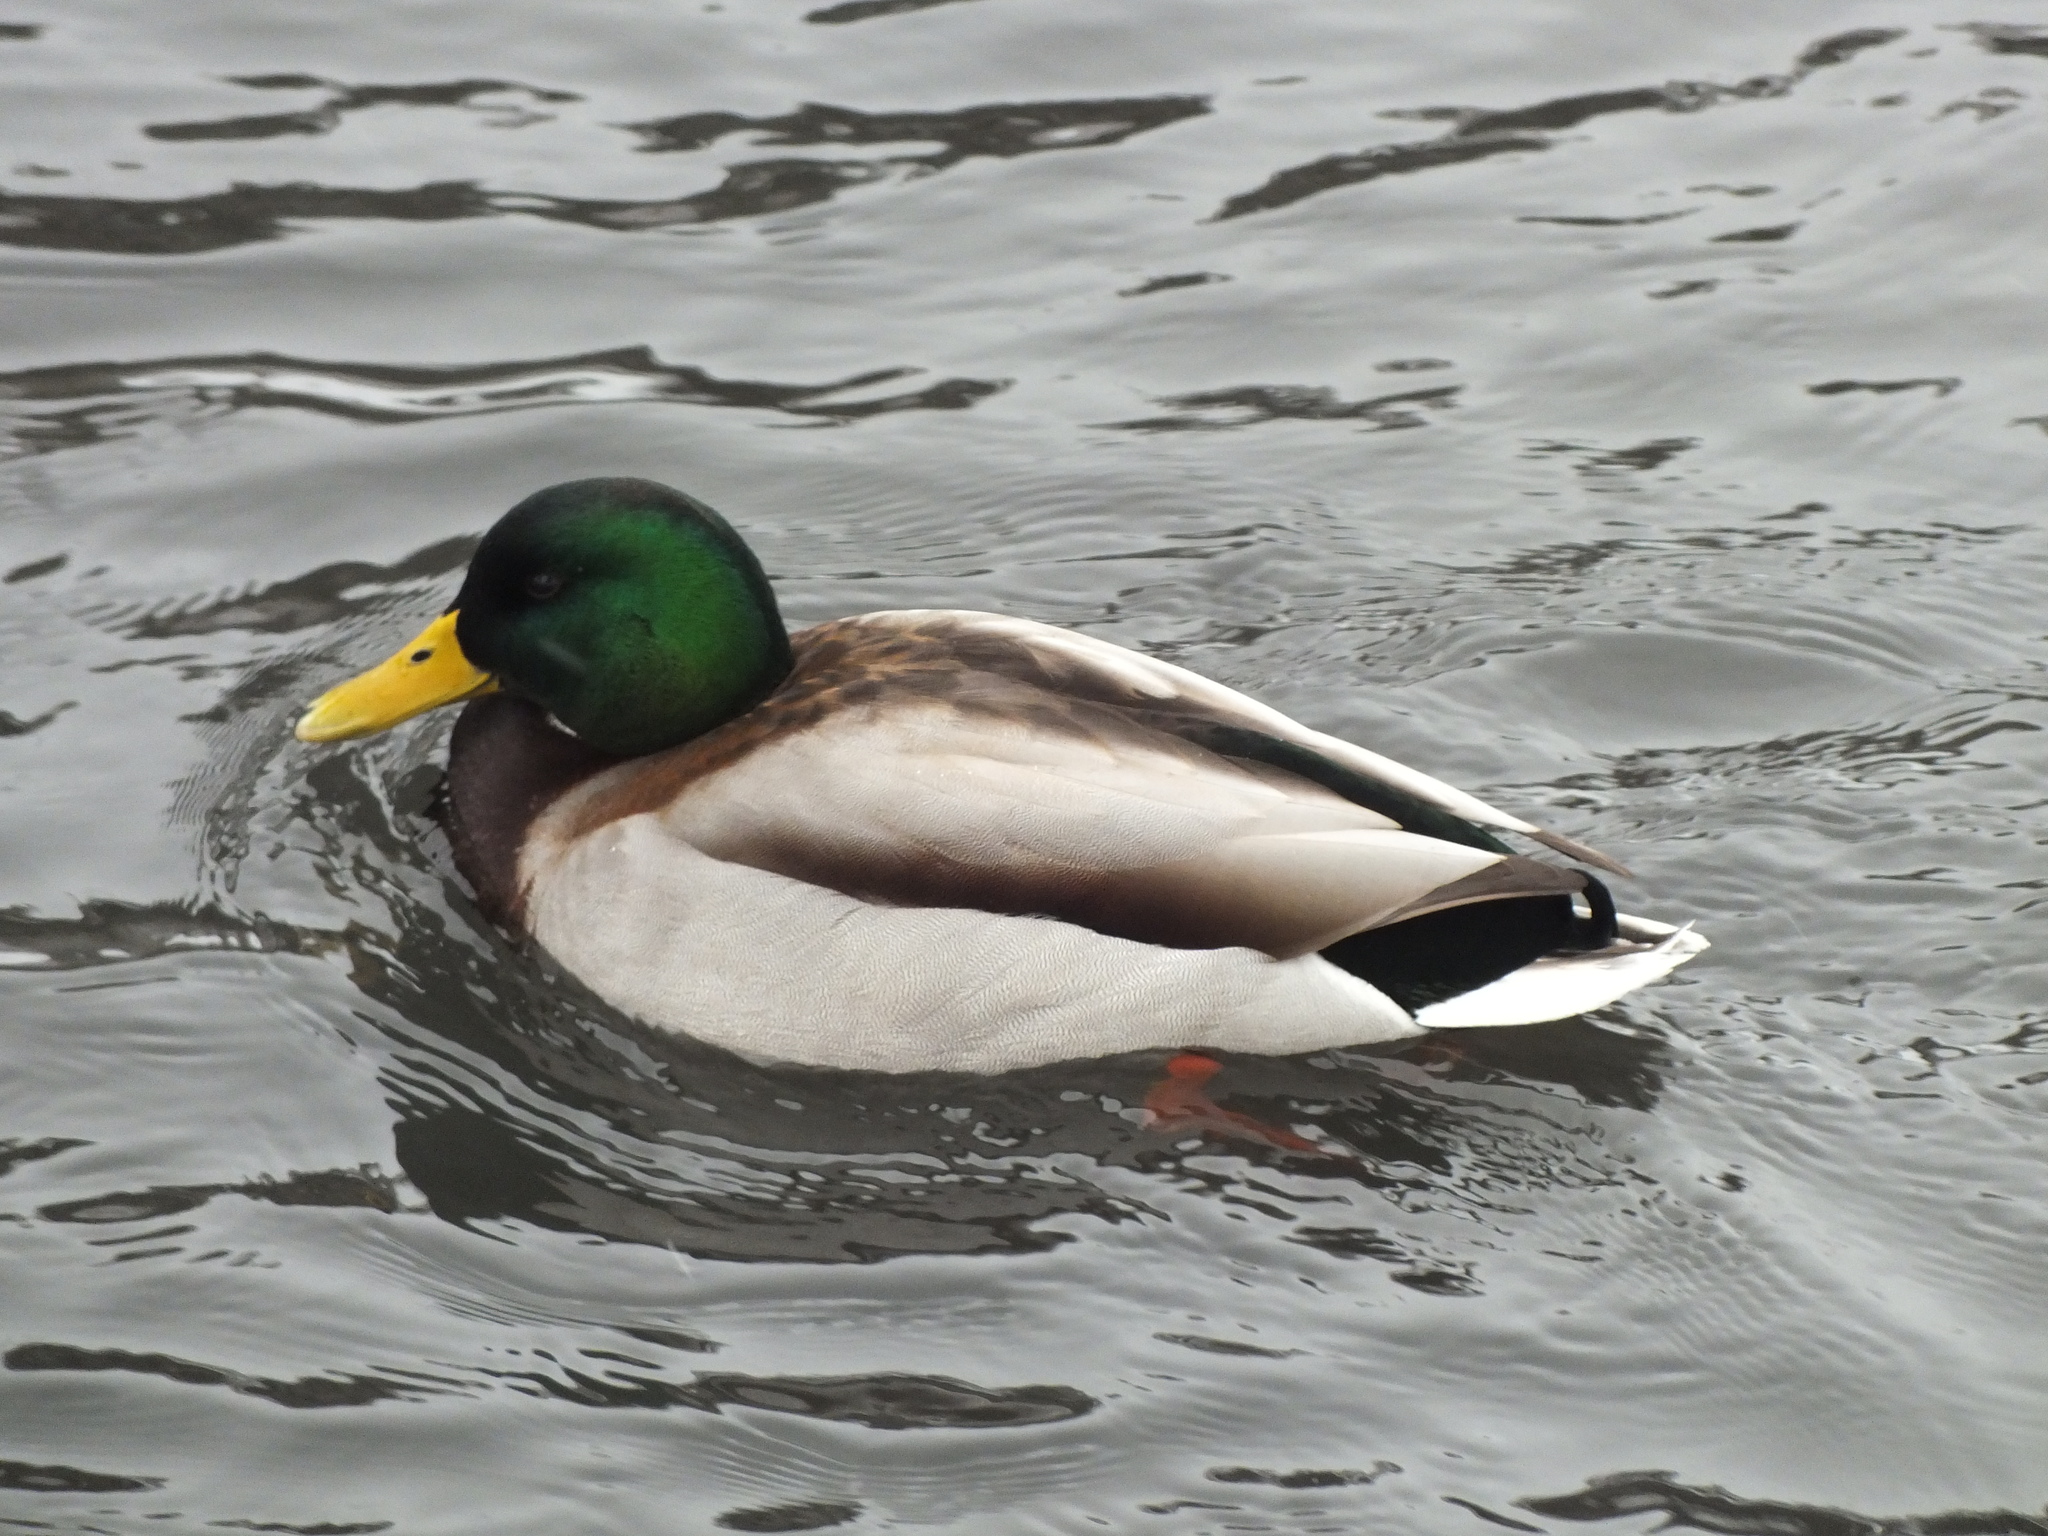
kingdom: Animalia
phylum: Chordata
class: Aves
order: Anseriformes
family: Anatidae
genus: Anas
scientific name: Anas platyrhynchos
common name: Mallard
